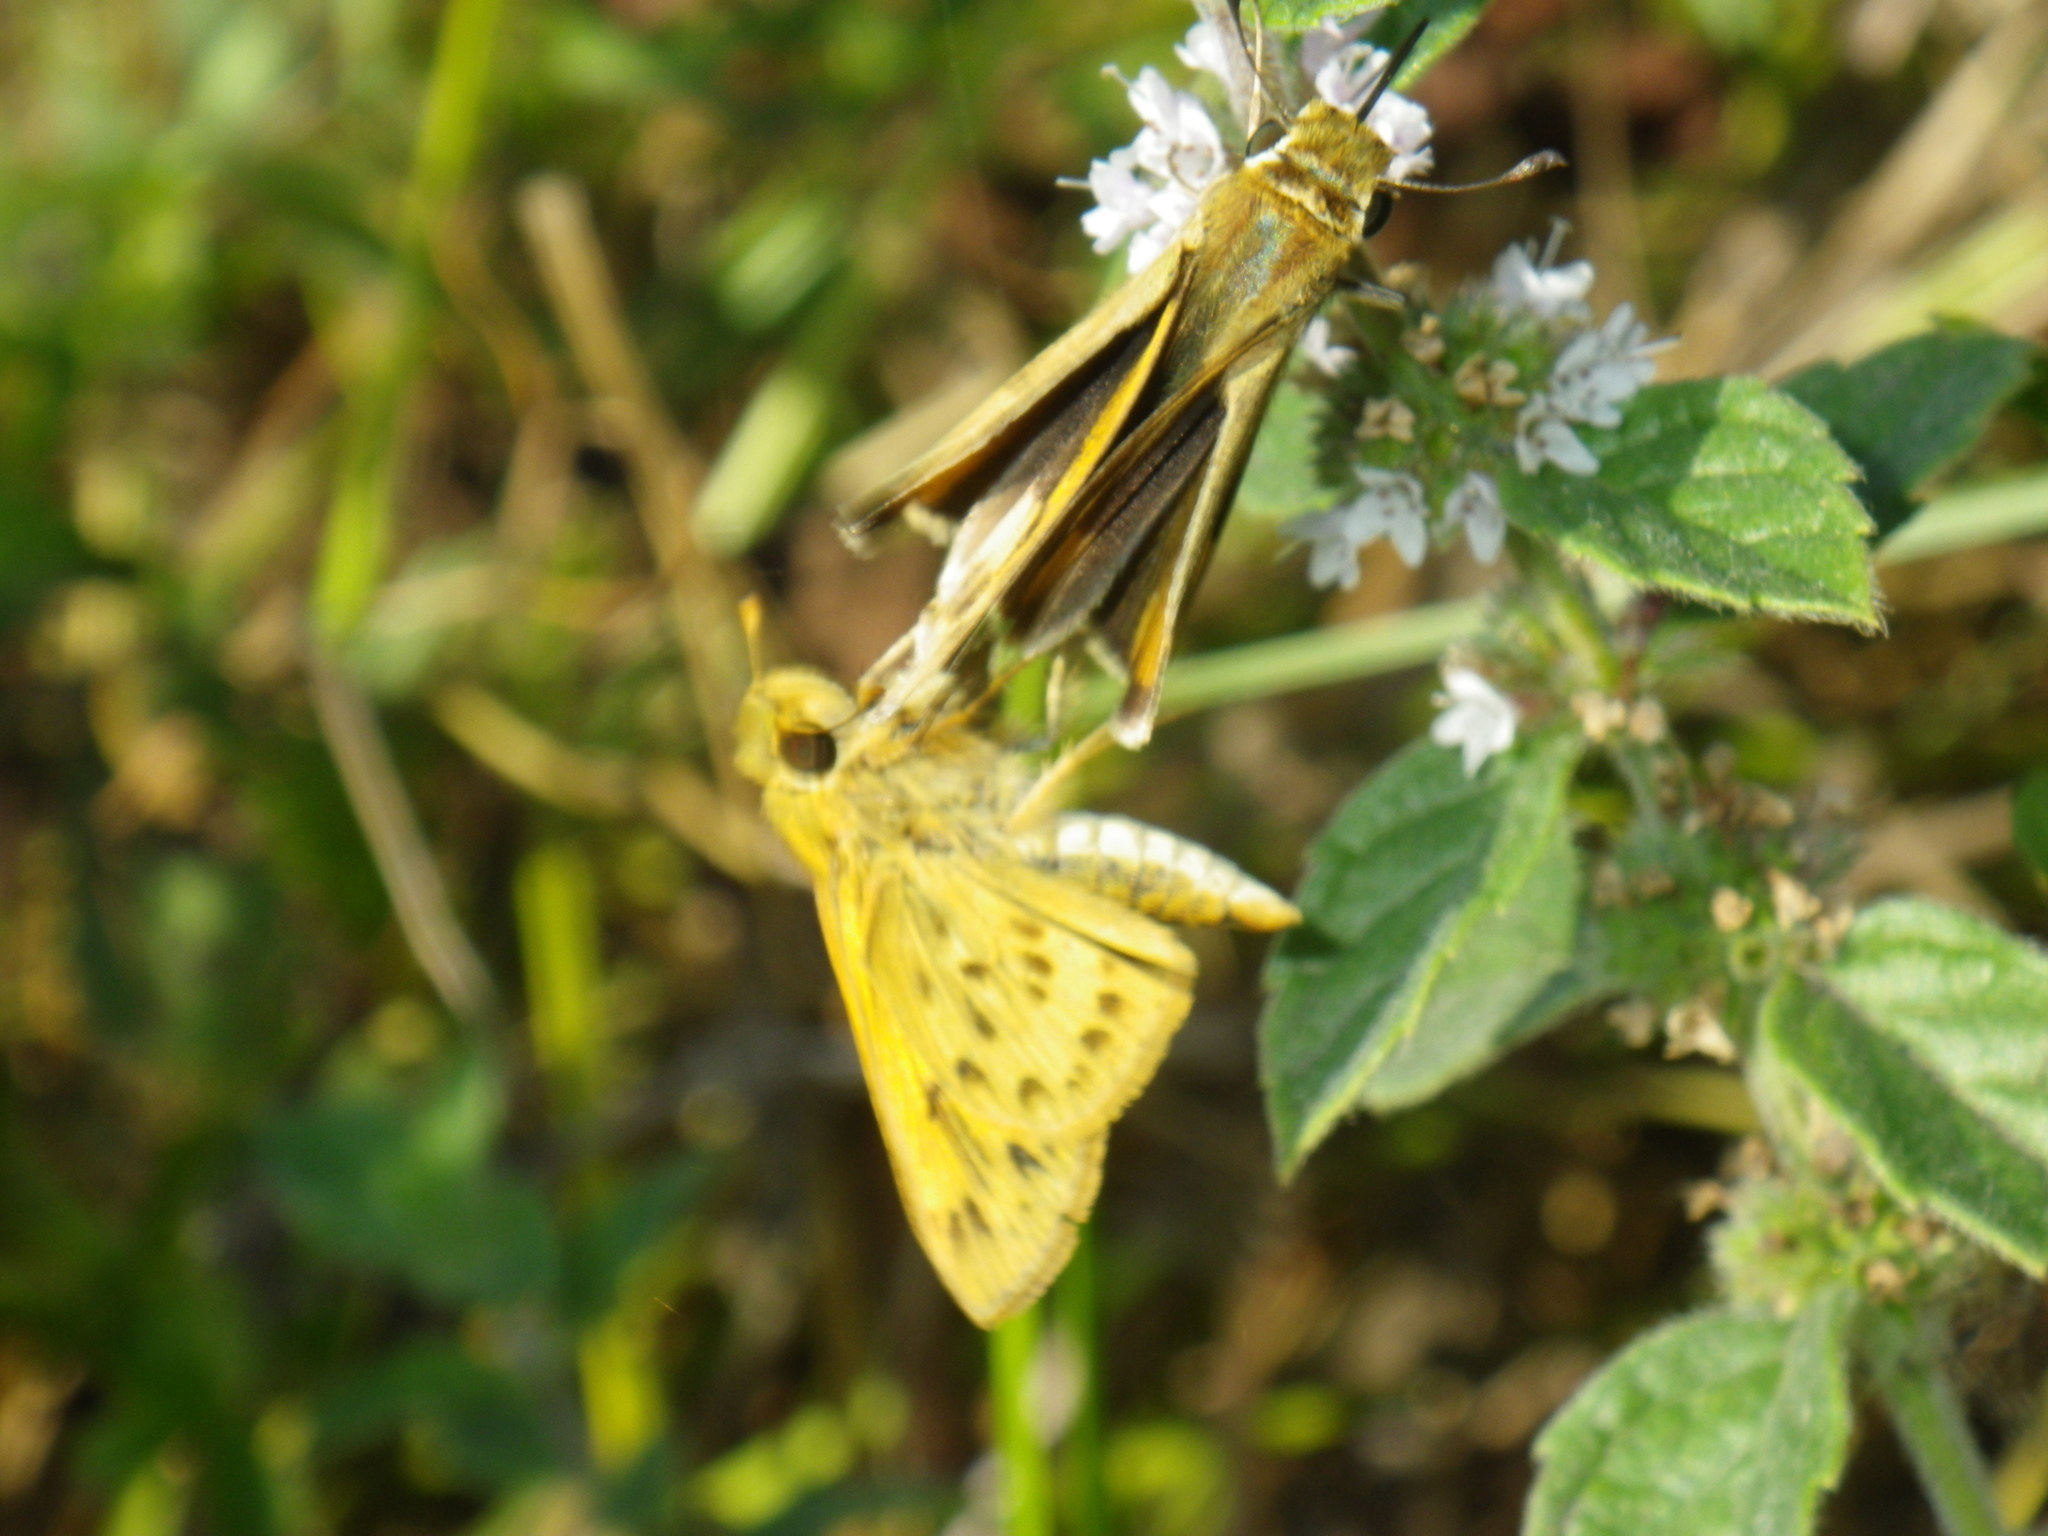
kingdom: Animalia
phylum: Arthropoda
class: Insecta
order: Lepidoptera
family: Hesperiidae
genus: Hylephila
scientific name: Hylephila phyleus
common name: Fiery skipper
